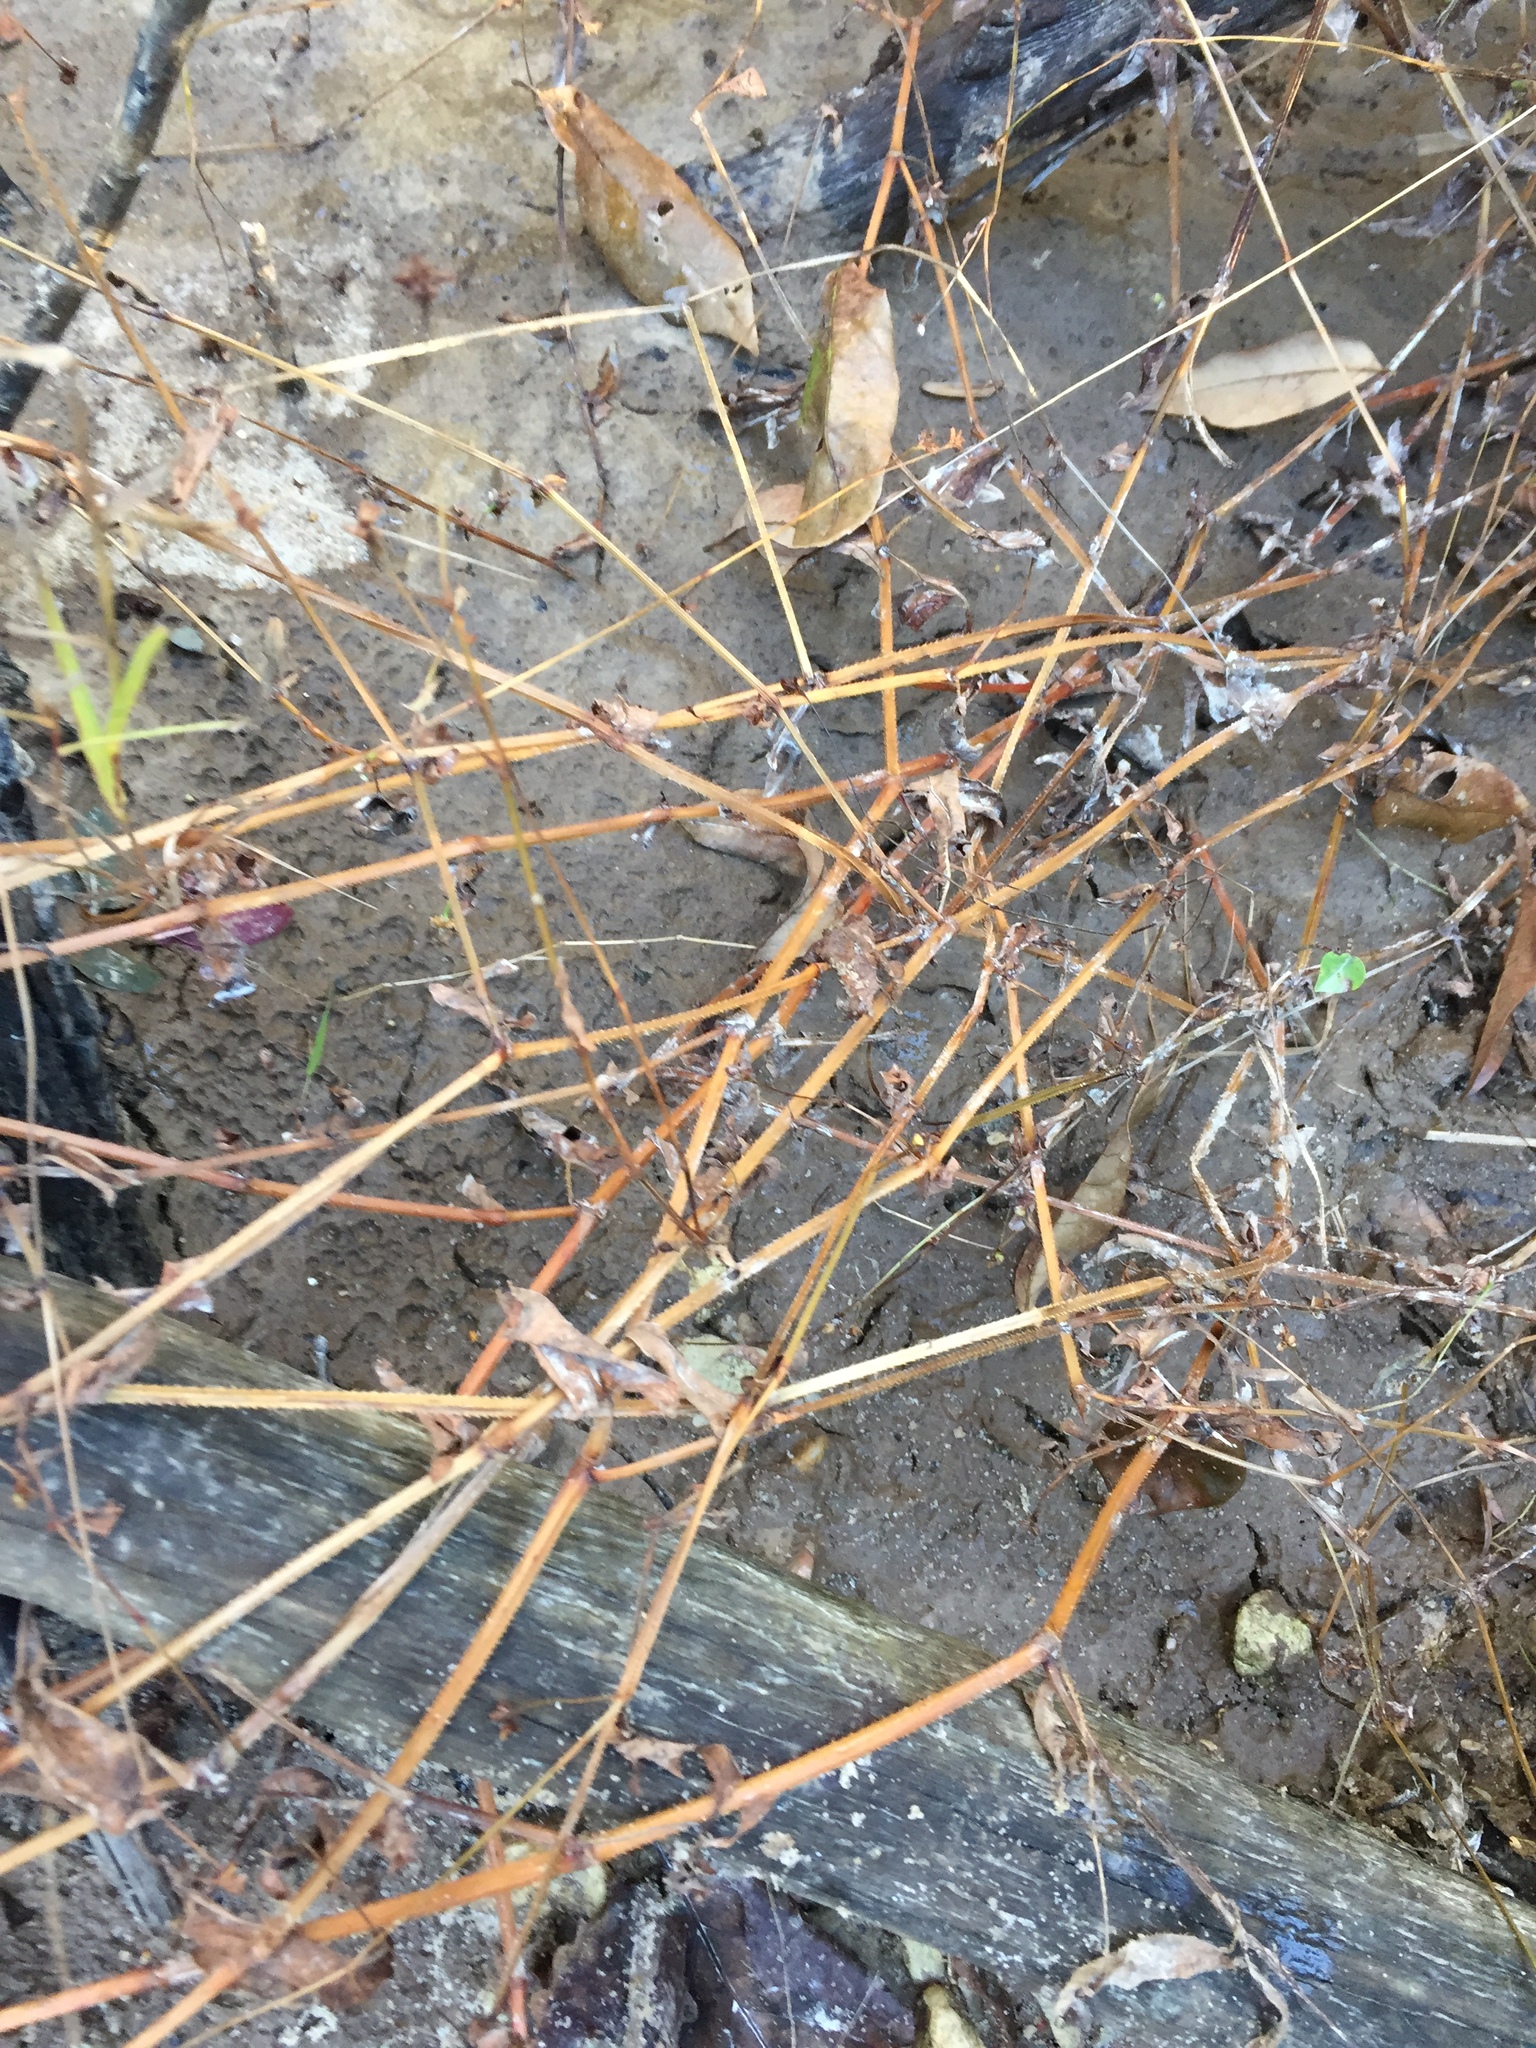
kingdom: Plantae
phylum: Tracheophyta
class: Magnoliopsida
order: Caryophyllales
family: Polygonaceae
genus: Persicaria
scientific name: Persicaria sagittata
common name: American tearthumb
